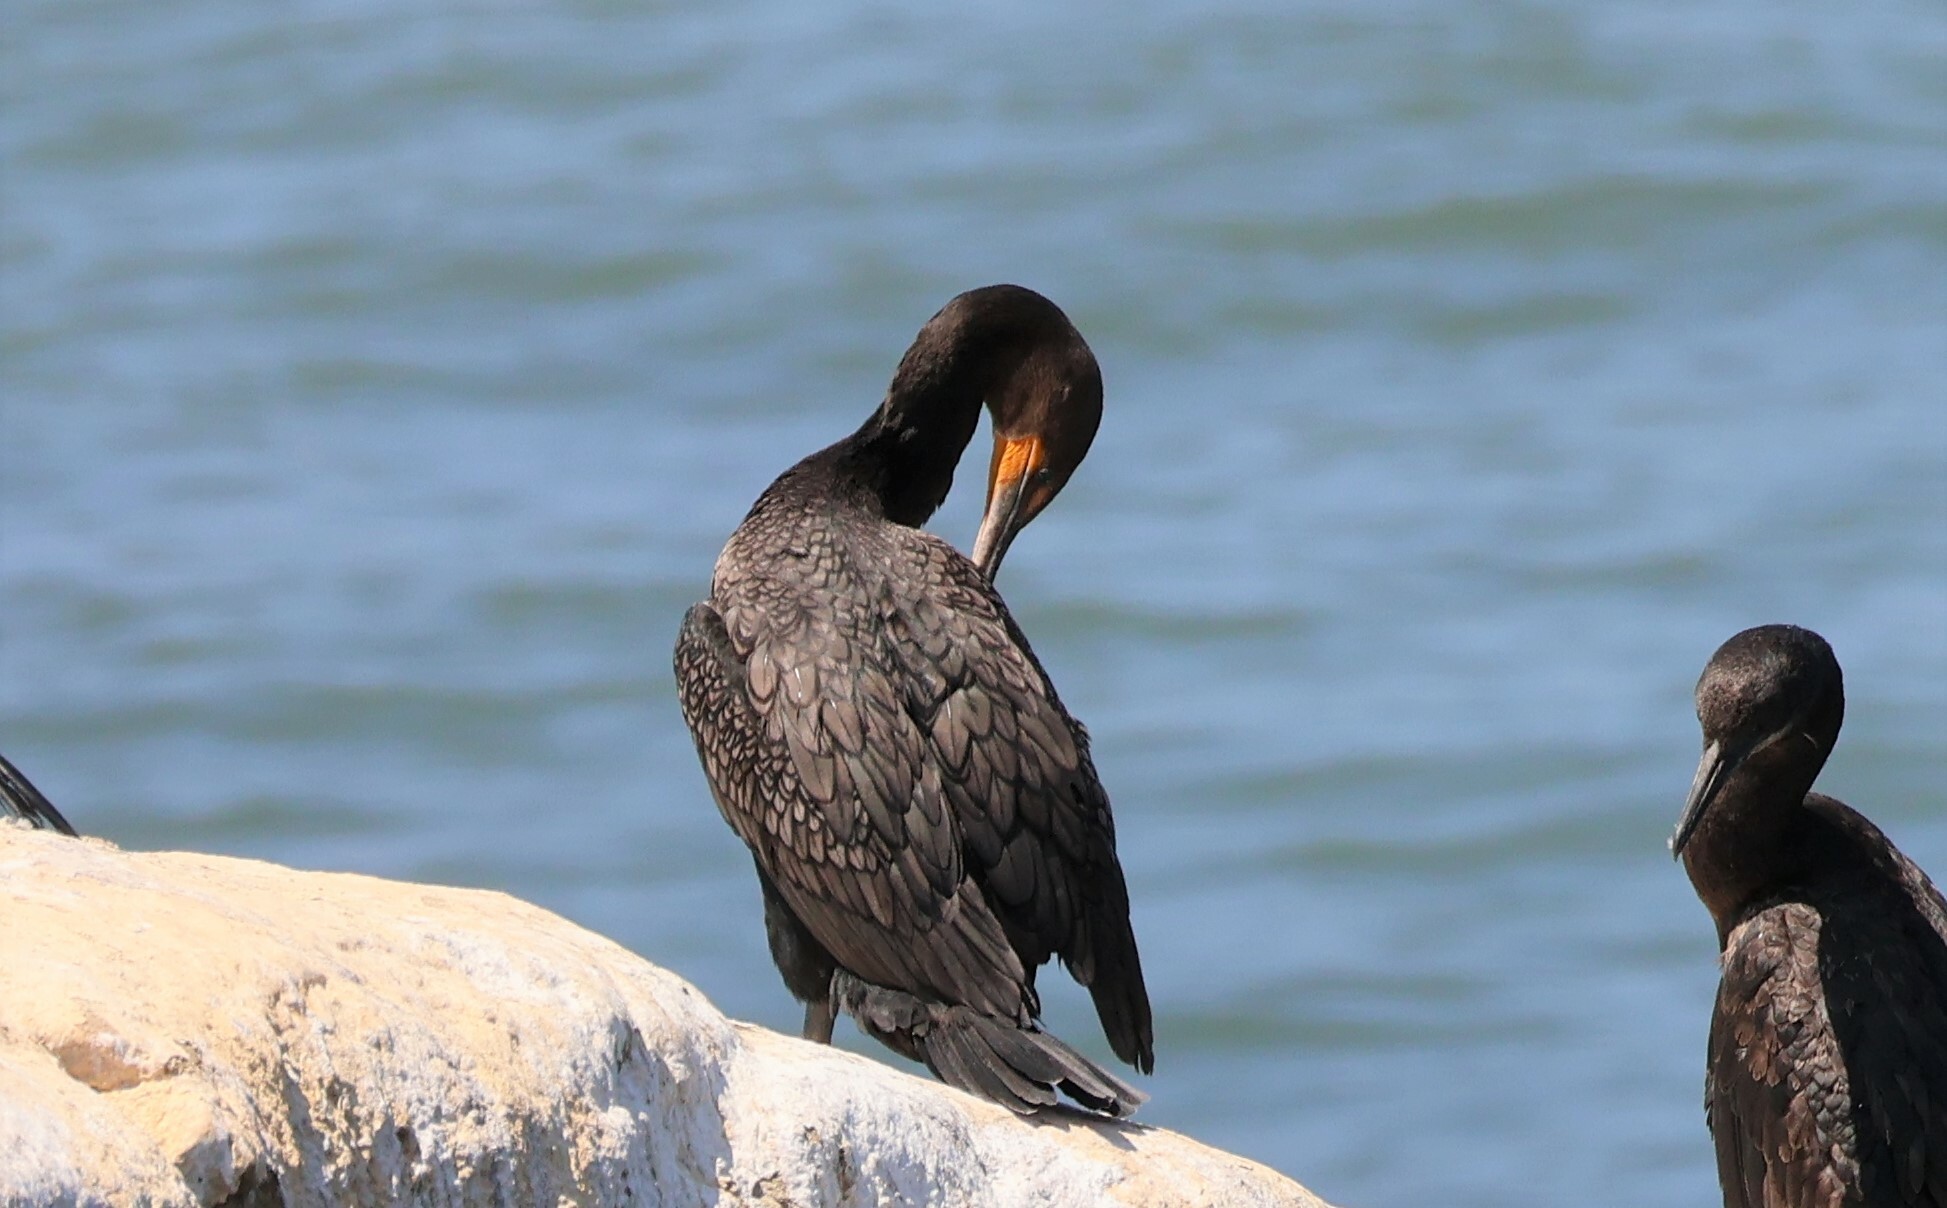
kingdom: Animalia
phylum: Chordata
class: Aves
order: Suliformes
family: Phalacrocoracidae
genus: Phalacrocorax
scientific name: Phalacrocorax auritus
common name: Double-crested cormorant
